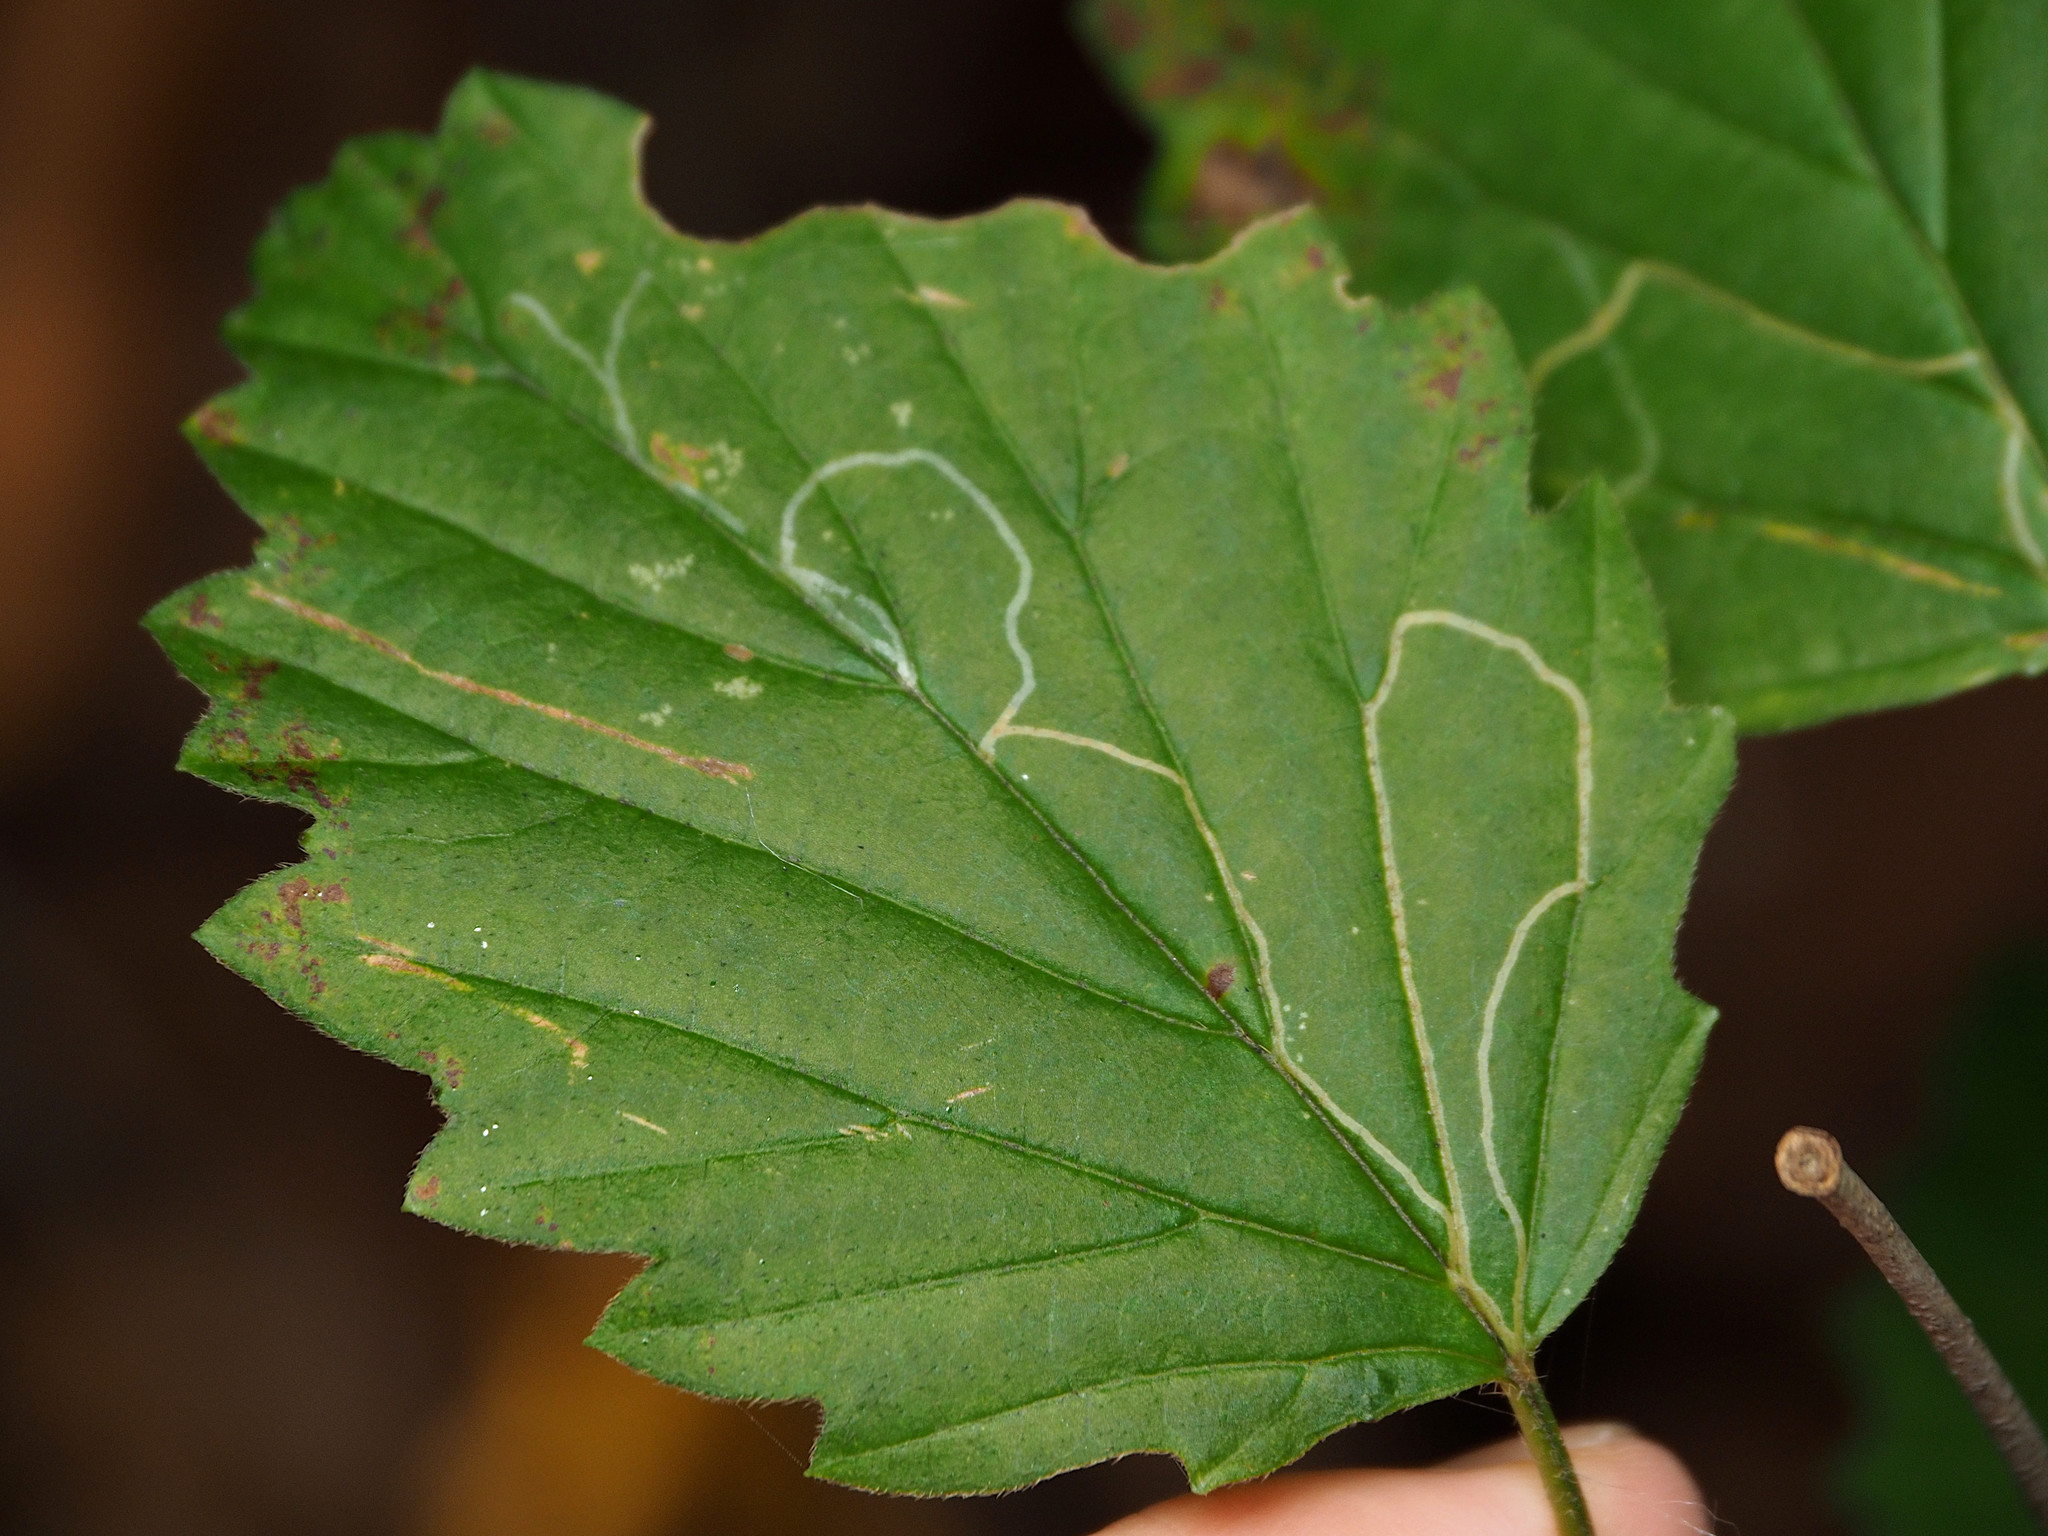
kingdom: Animalia
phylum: Arthropoda
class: Insecta
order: Lepidoptera
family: Gracillariidae
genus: Marmara
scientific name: Marmara viburnella
